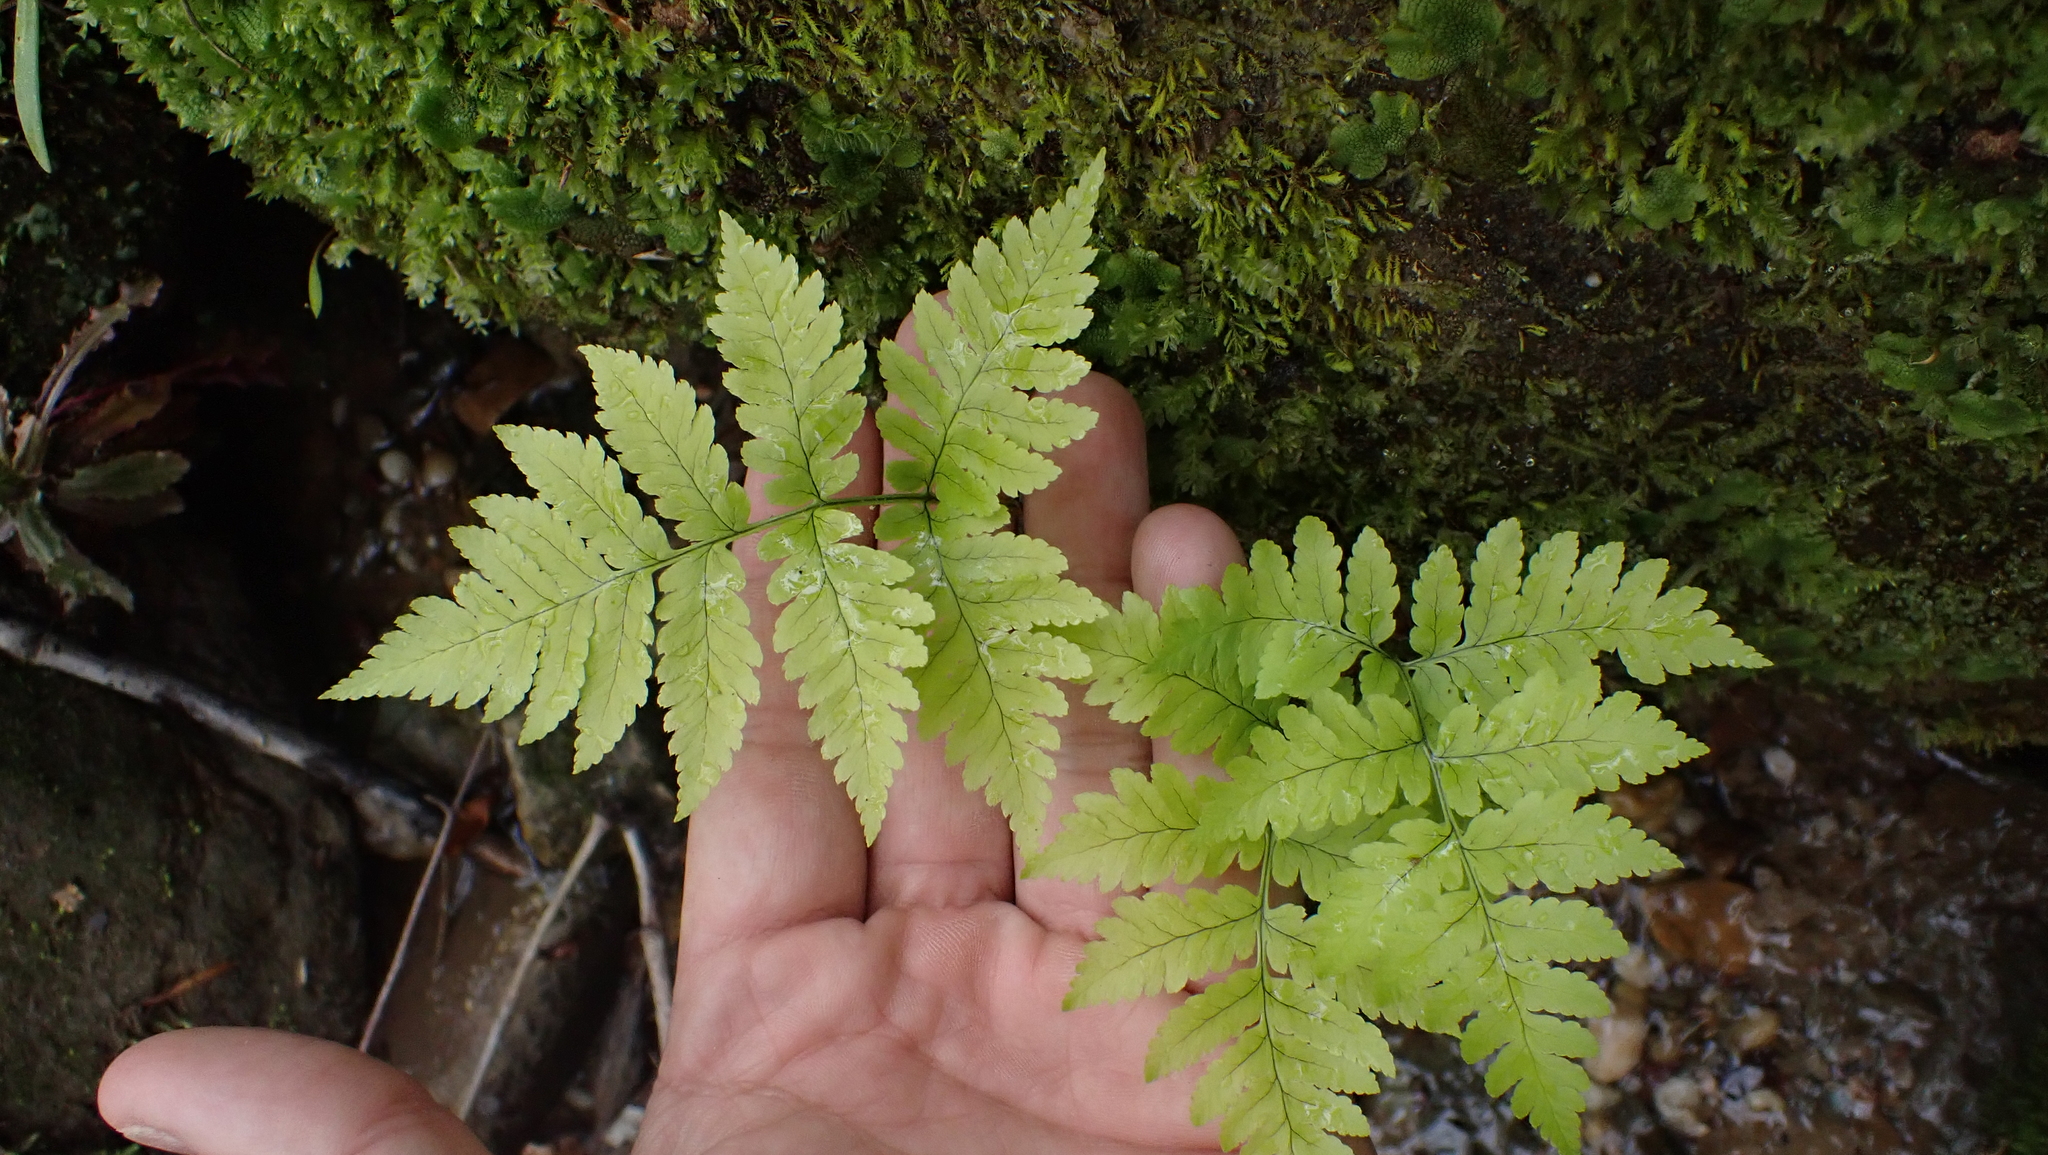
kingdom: Plantae
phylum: Tracheophyta
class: Polypodiopsida
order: Polypodiales
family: Dryopteridaceae
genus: Dryopteris
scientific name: Dryopteris goldieana
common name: Goldie's fern
